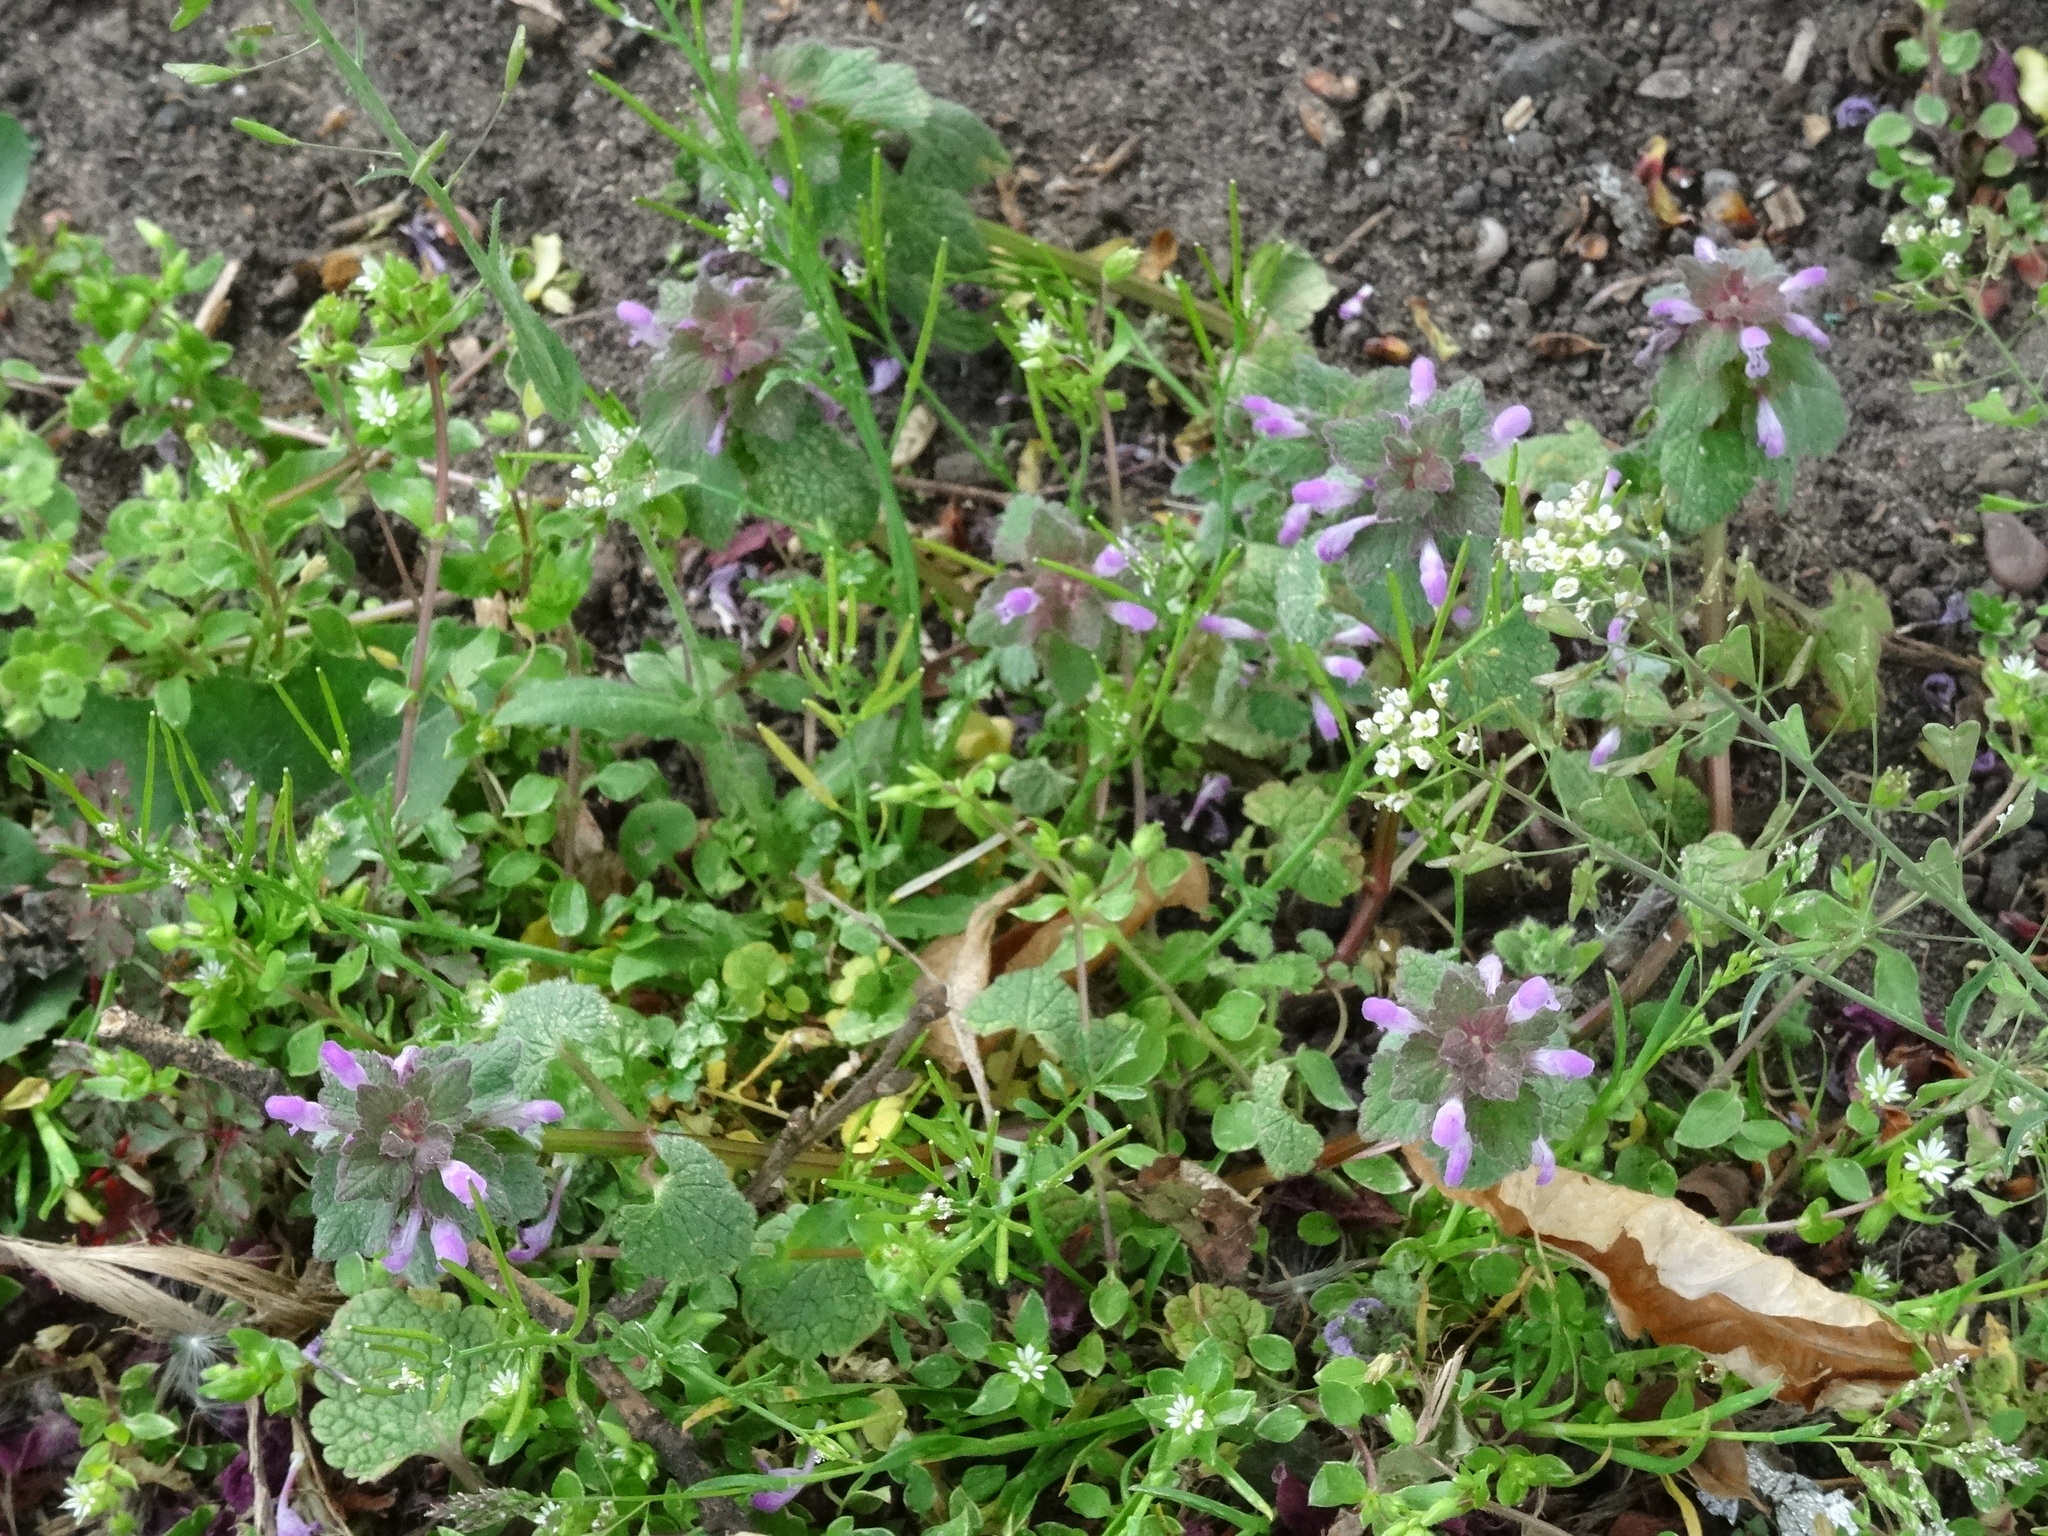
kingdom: Plantae
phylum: Tracheophyta
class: Magnoliopsida
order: Lamiales
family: Lamiaceae
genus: Lamium
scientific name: Lamium purpureum
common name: Red dead-nettle
